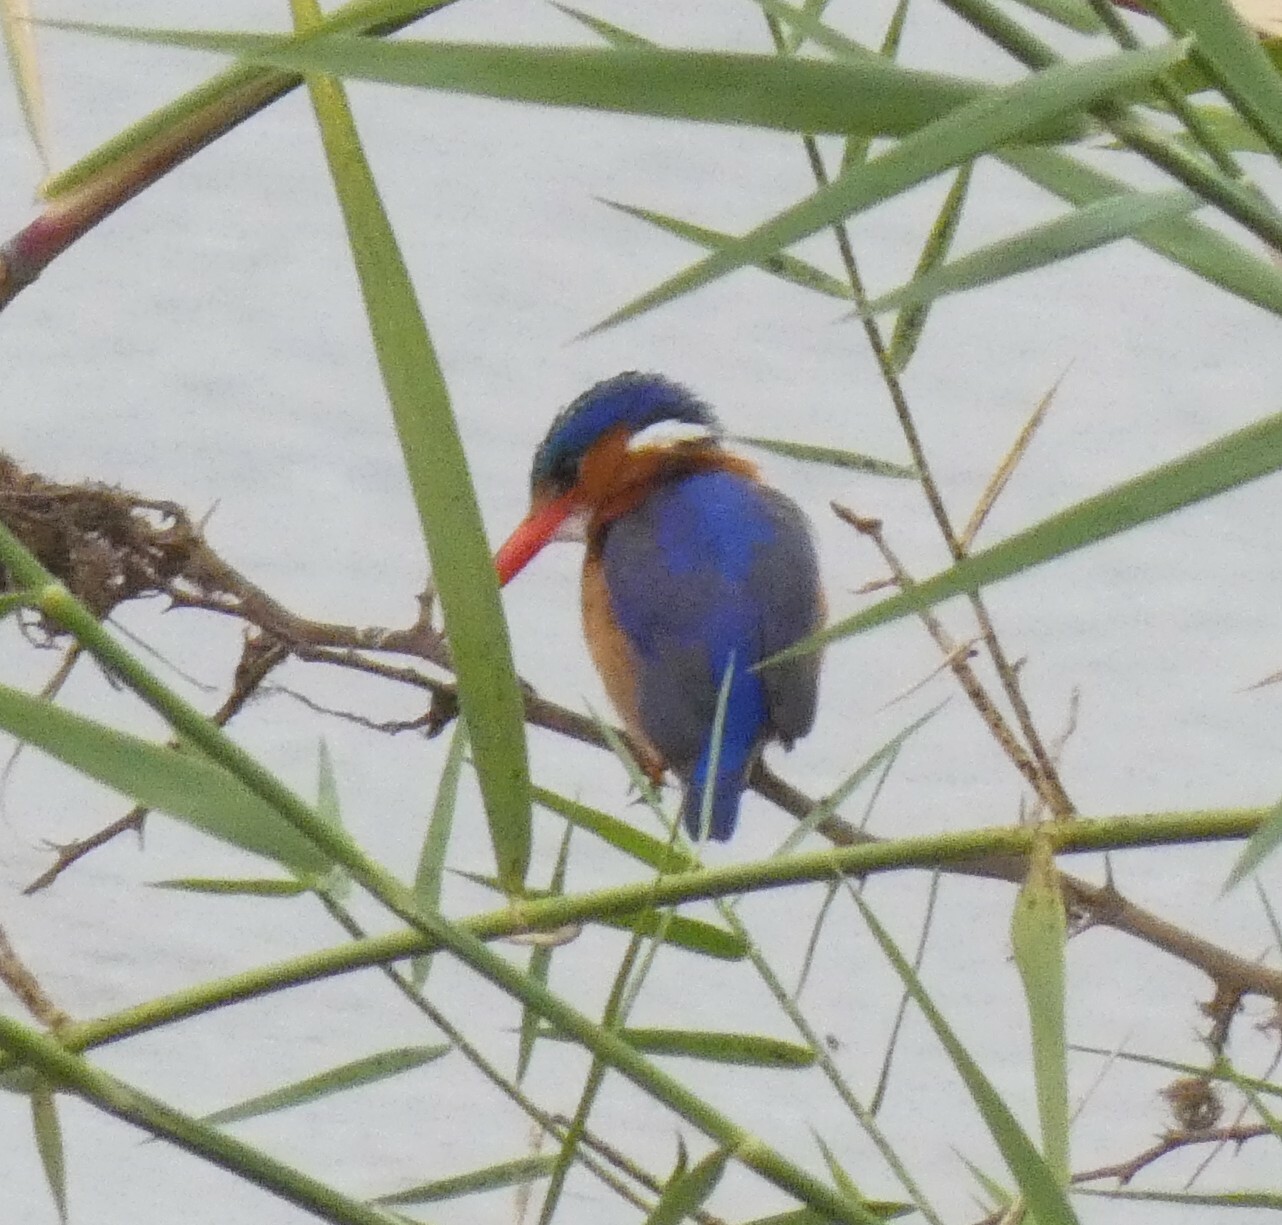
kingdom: Animalia
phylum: Chordata
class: Aves
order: Coraciiformes
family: Alcedinidae
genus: Corythornis
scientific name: Corythornis cristatus
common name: Malachite kingfisher
